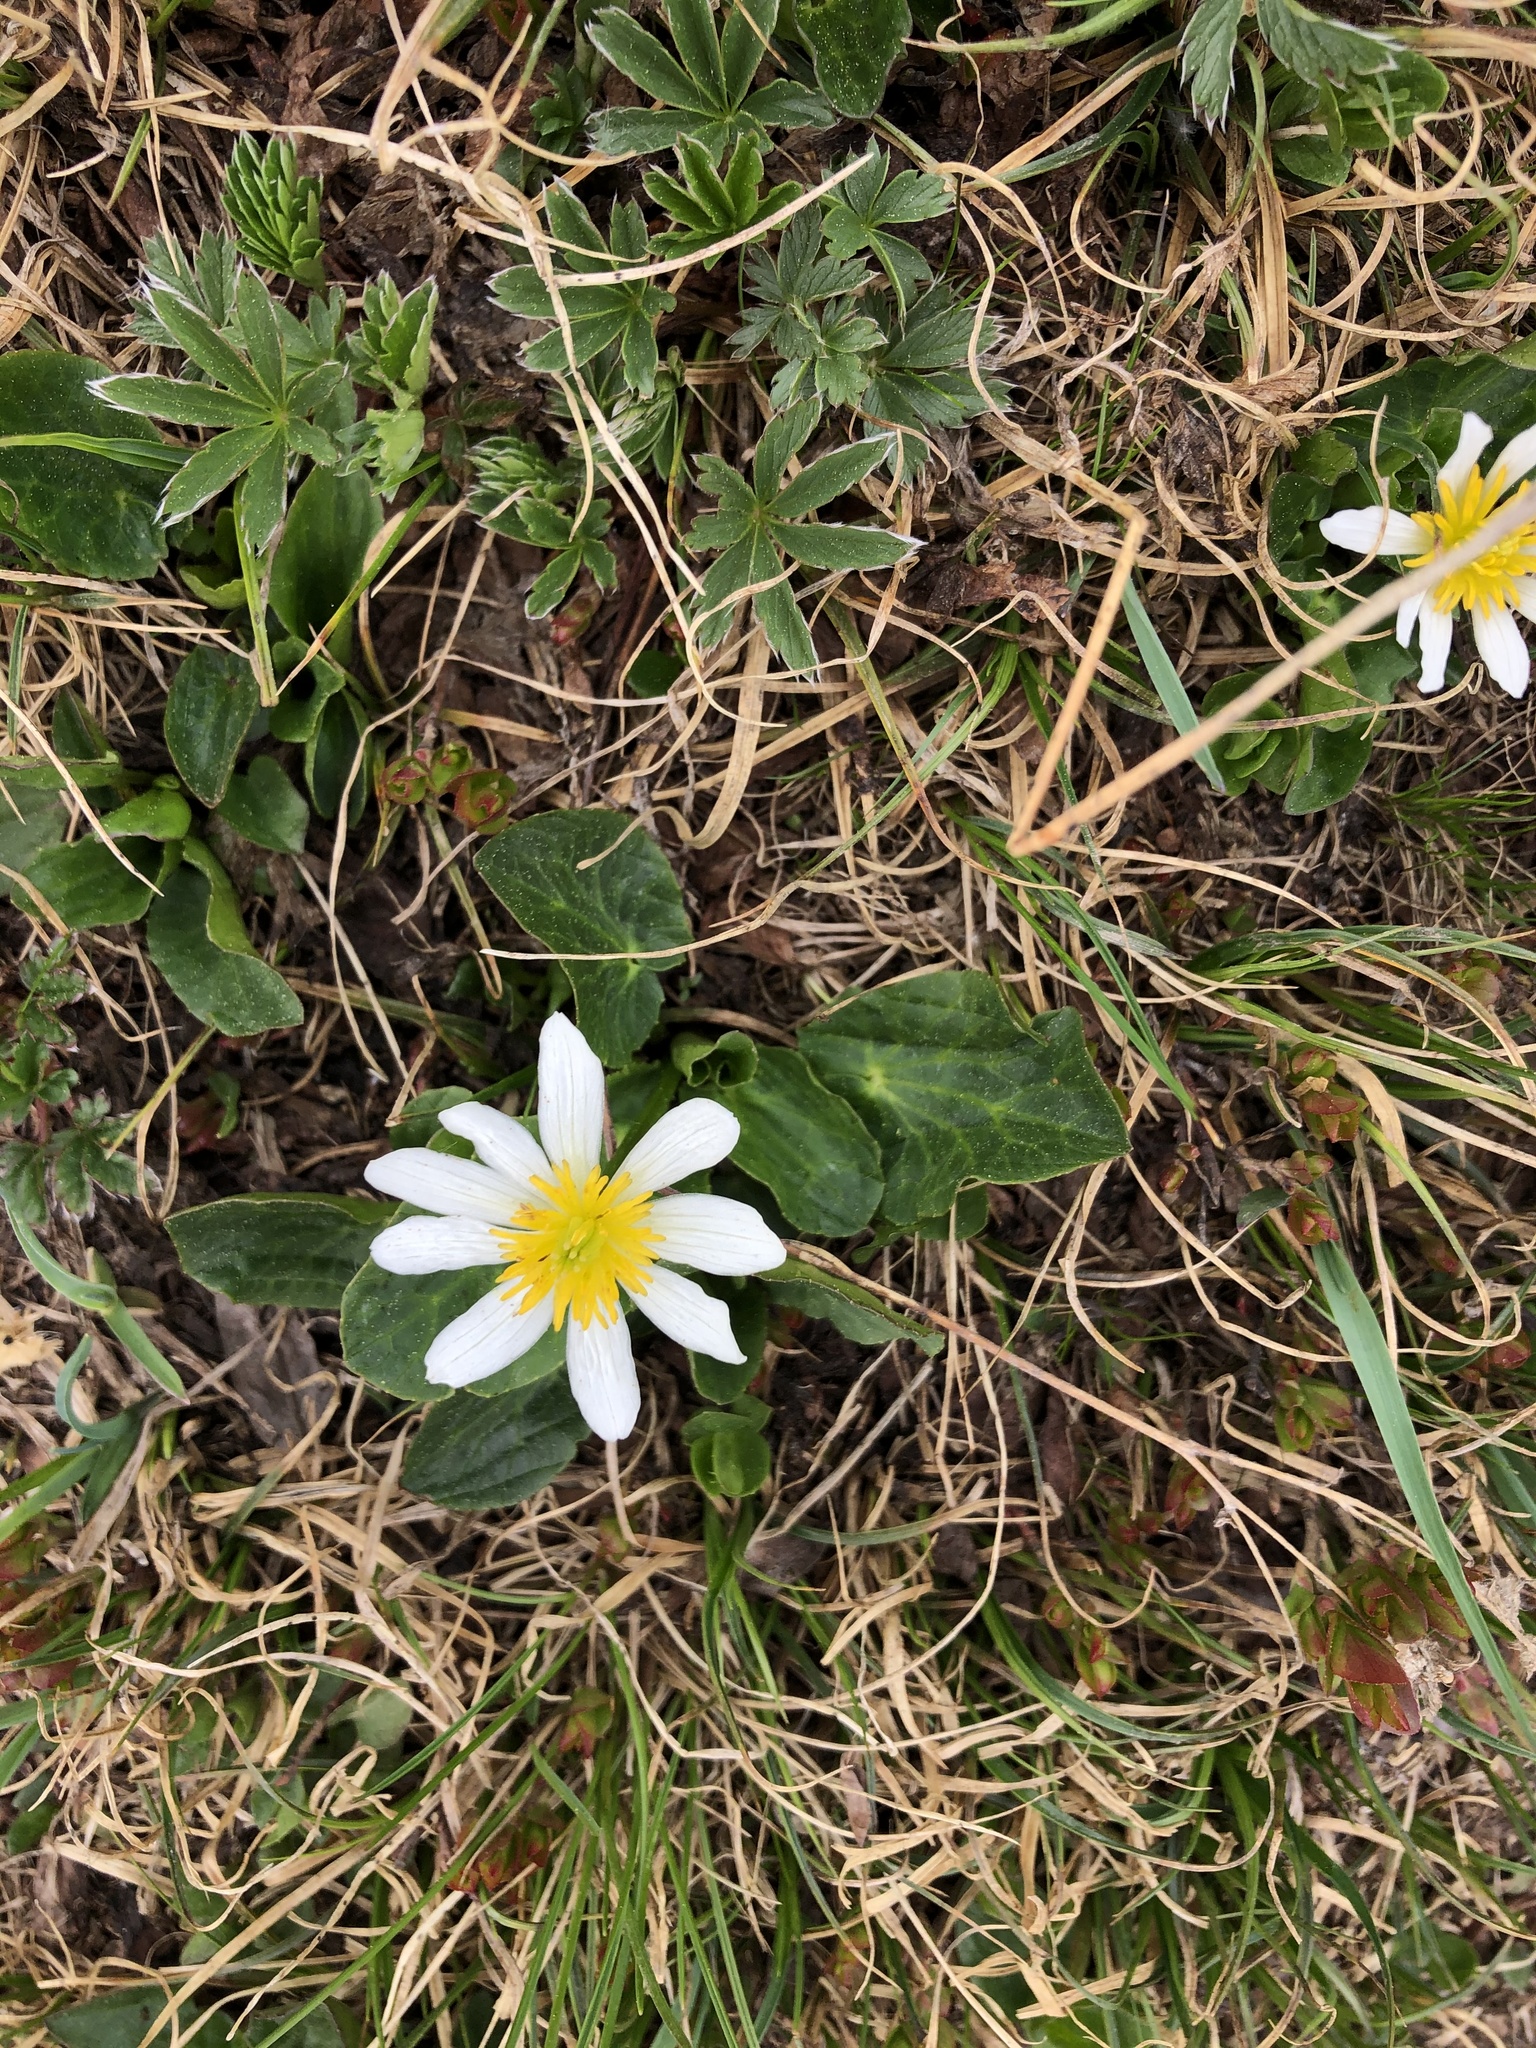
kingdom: Plantae
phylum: Tracheophyta
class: Magnoliopsida
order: Ranunculales
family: Ranunculaceae
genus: Caltha
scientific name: Caltha leptosepala
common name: Elkslip
